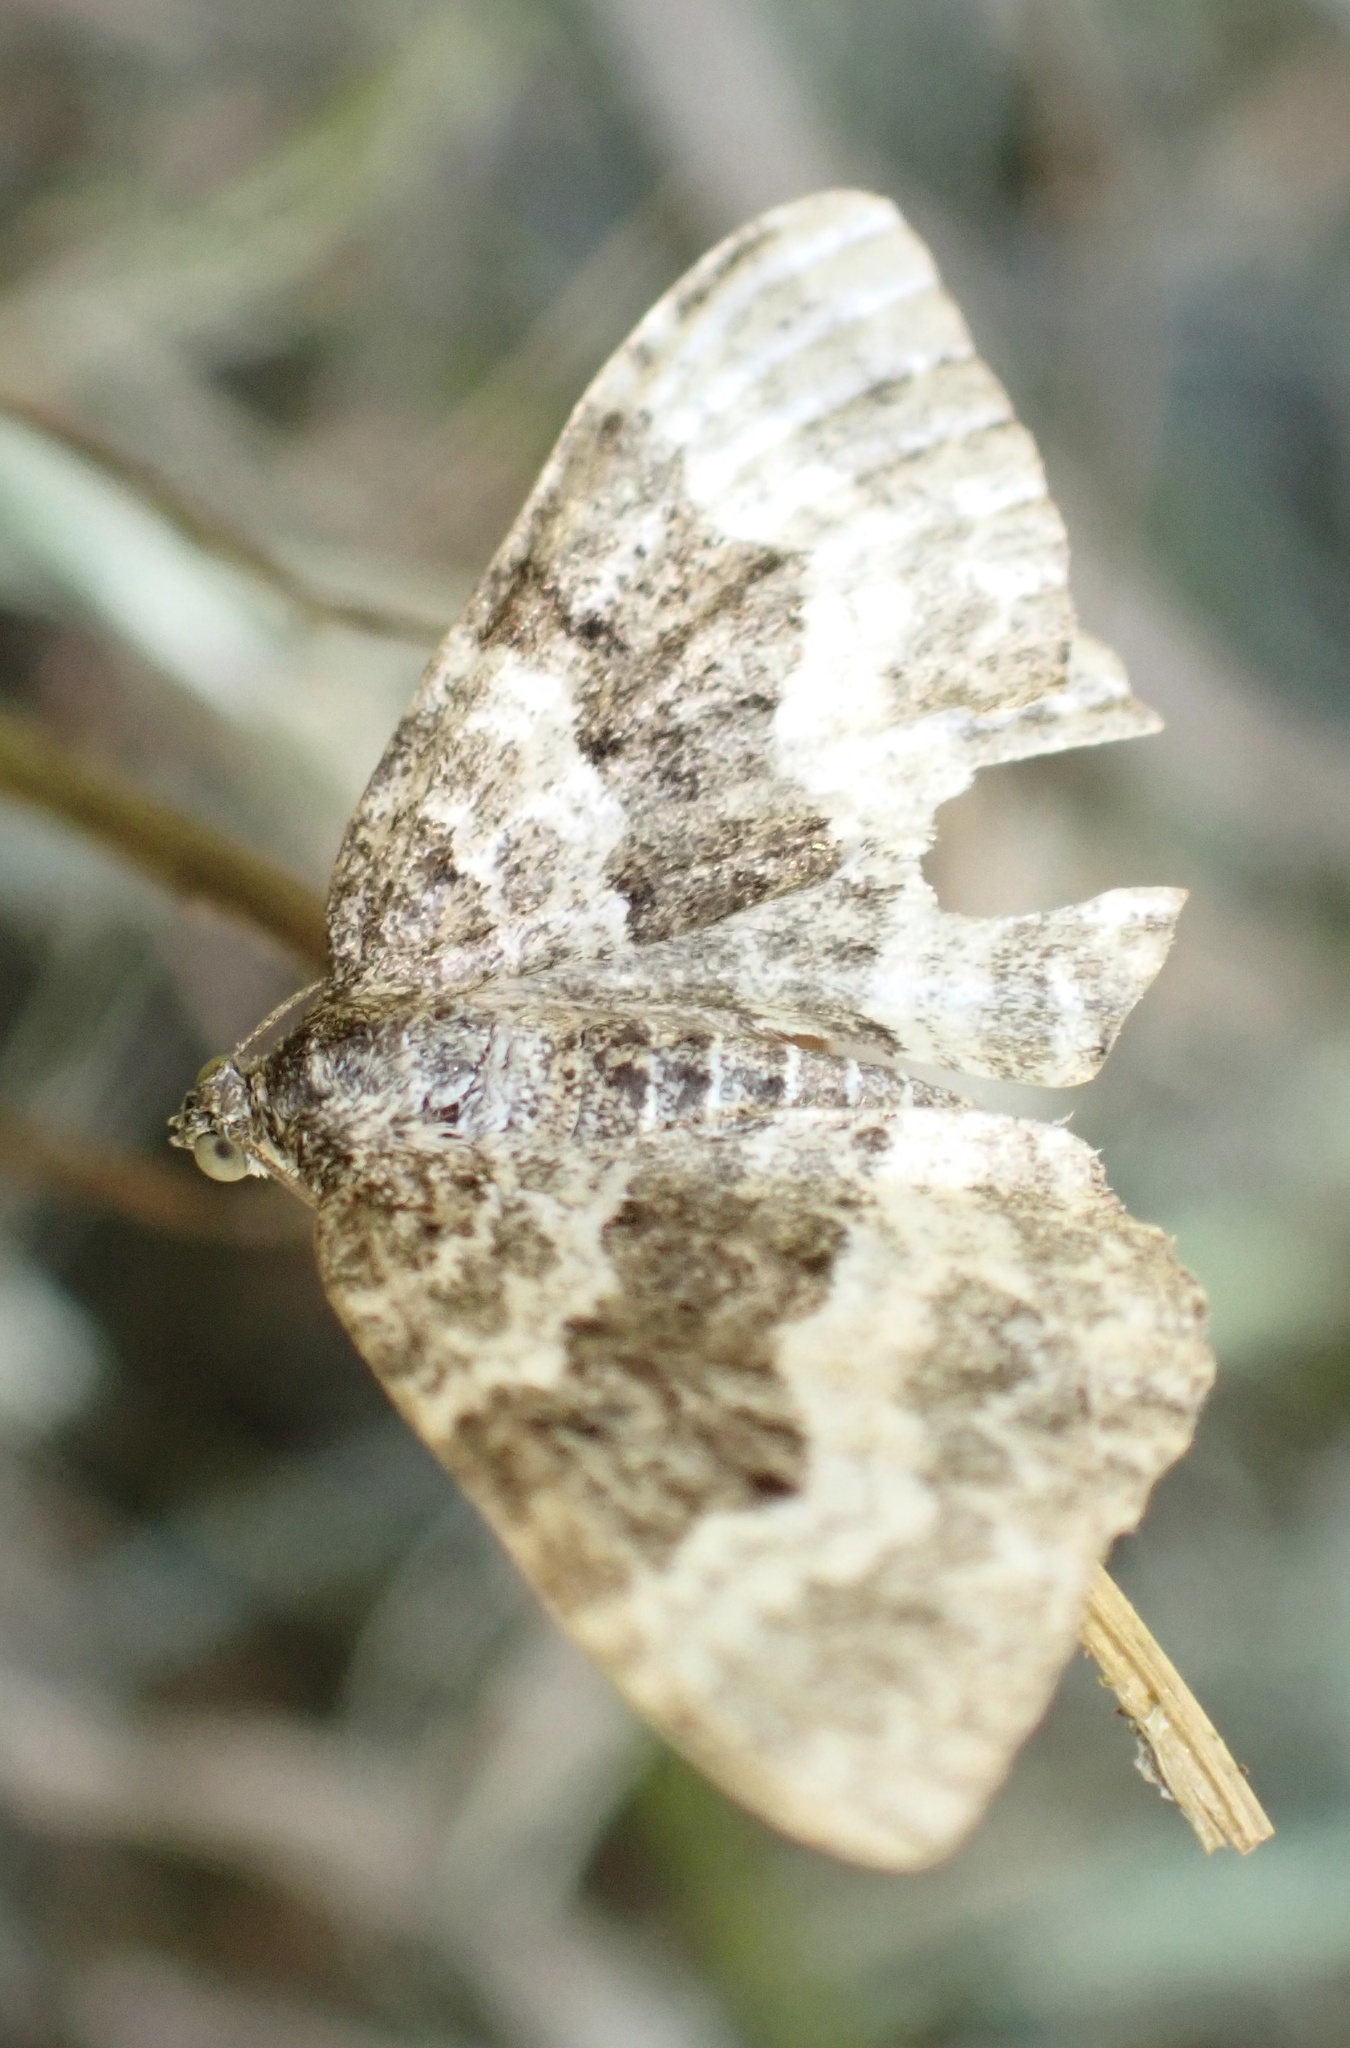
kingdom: Animalia
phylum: Arthropoda
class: Insecta
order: Lepidoptera
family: Geometridae
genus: Epirrhoe
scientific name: Epirrhoe alternata
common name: Common carpet
